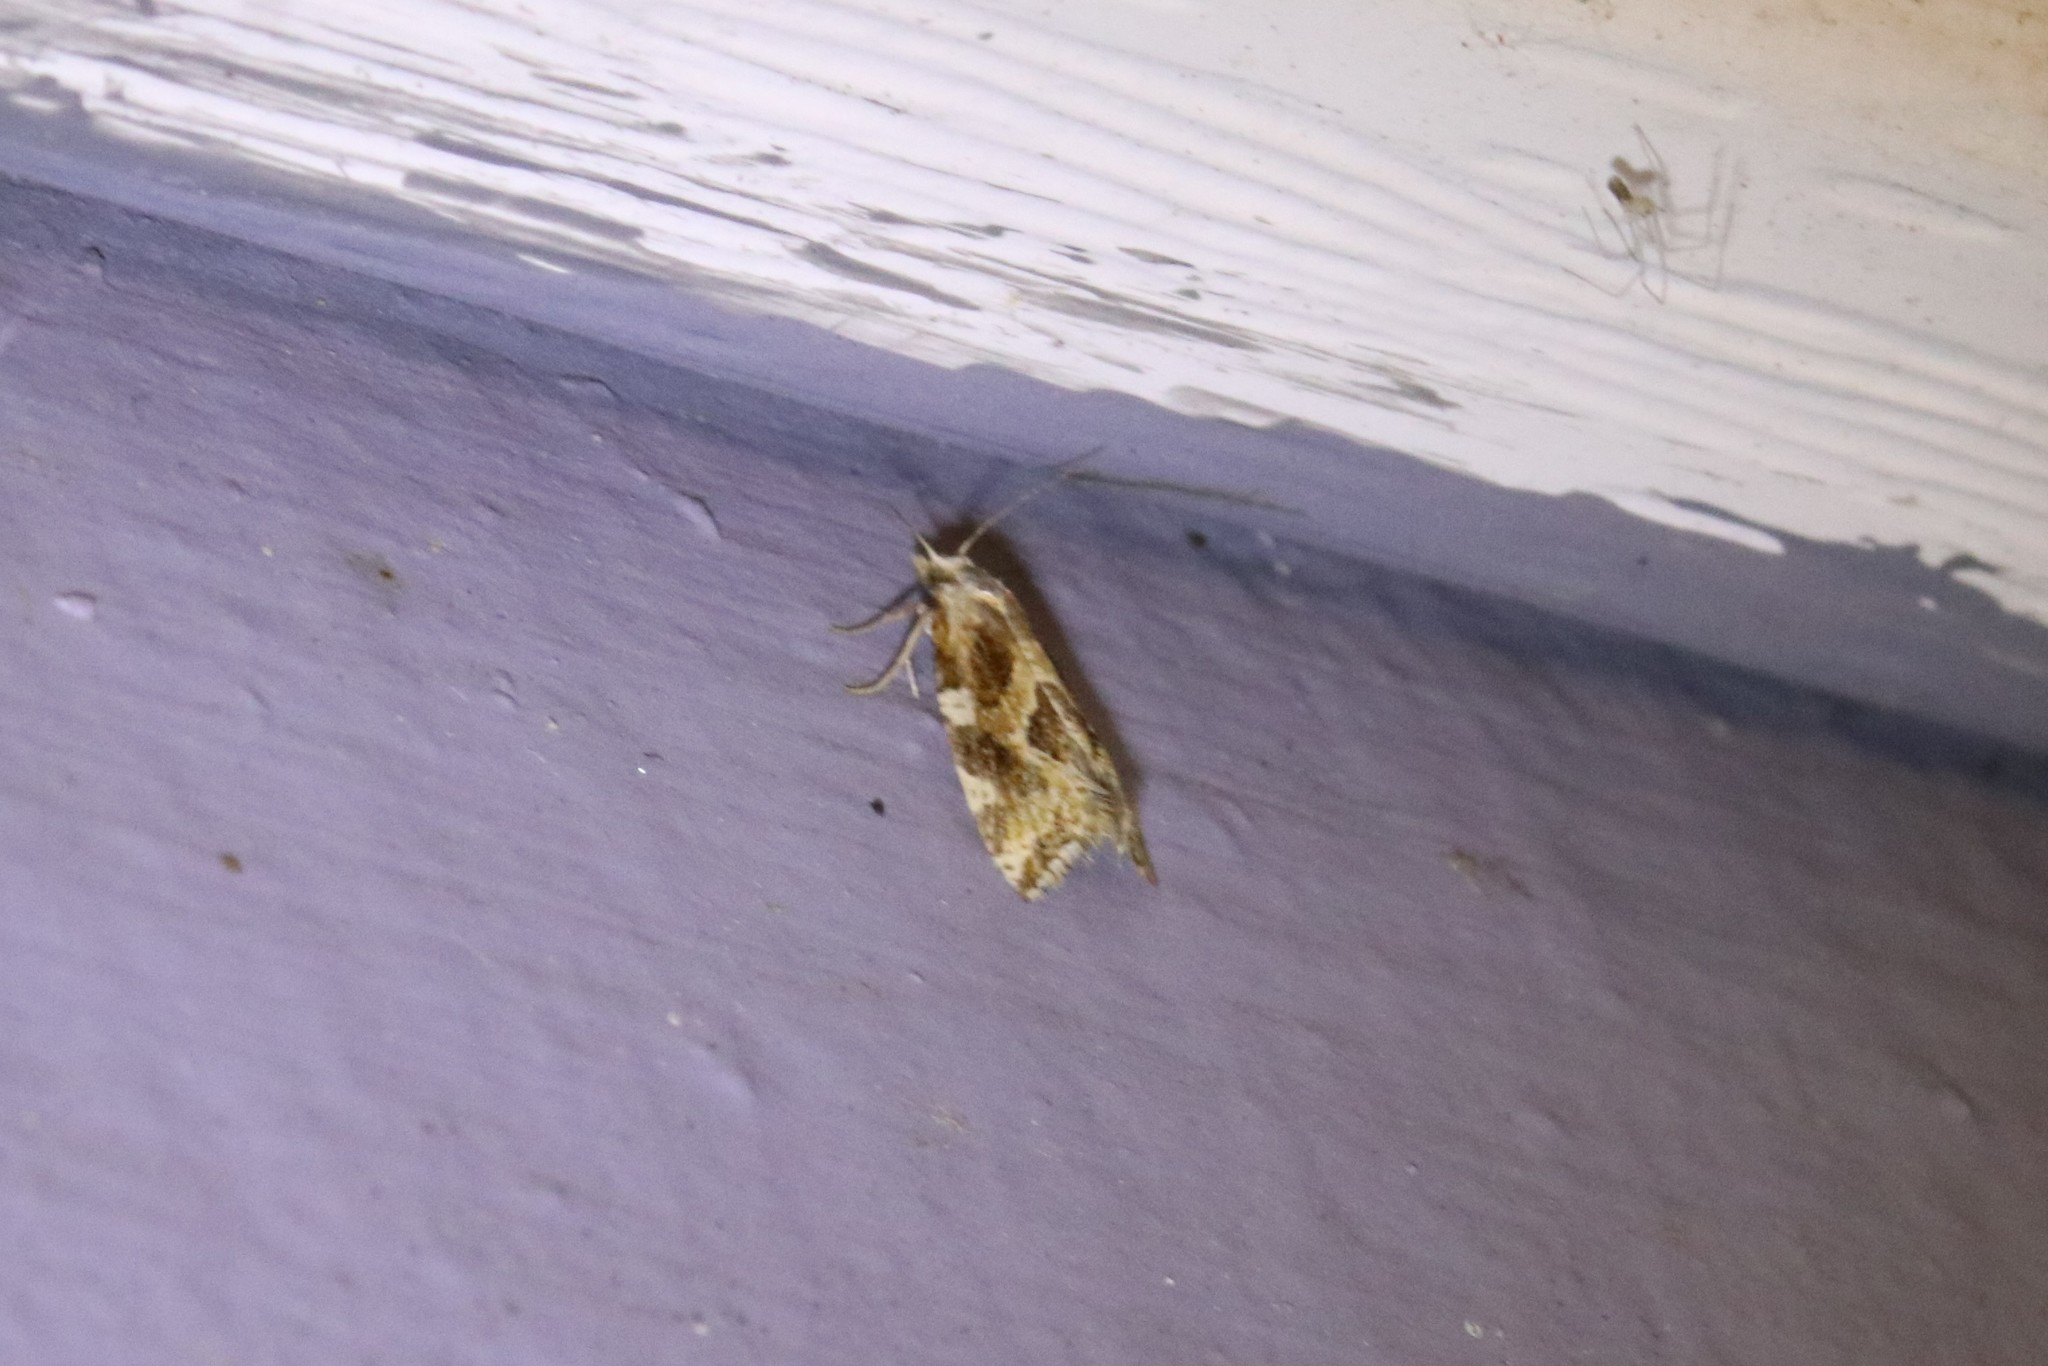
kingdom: Animalia
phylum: Arthropoda
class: Insecta
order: Lepidoptera
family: Tortricidae
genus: Argyrotaenia
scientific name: Argyrotaenia mariana
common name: Gray-banded leafroller moth
